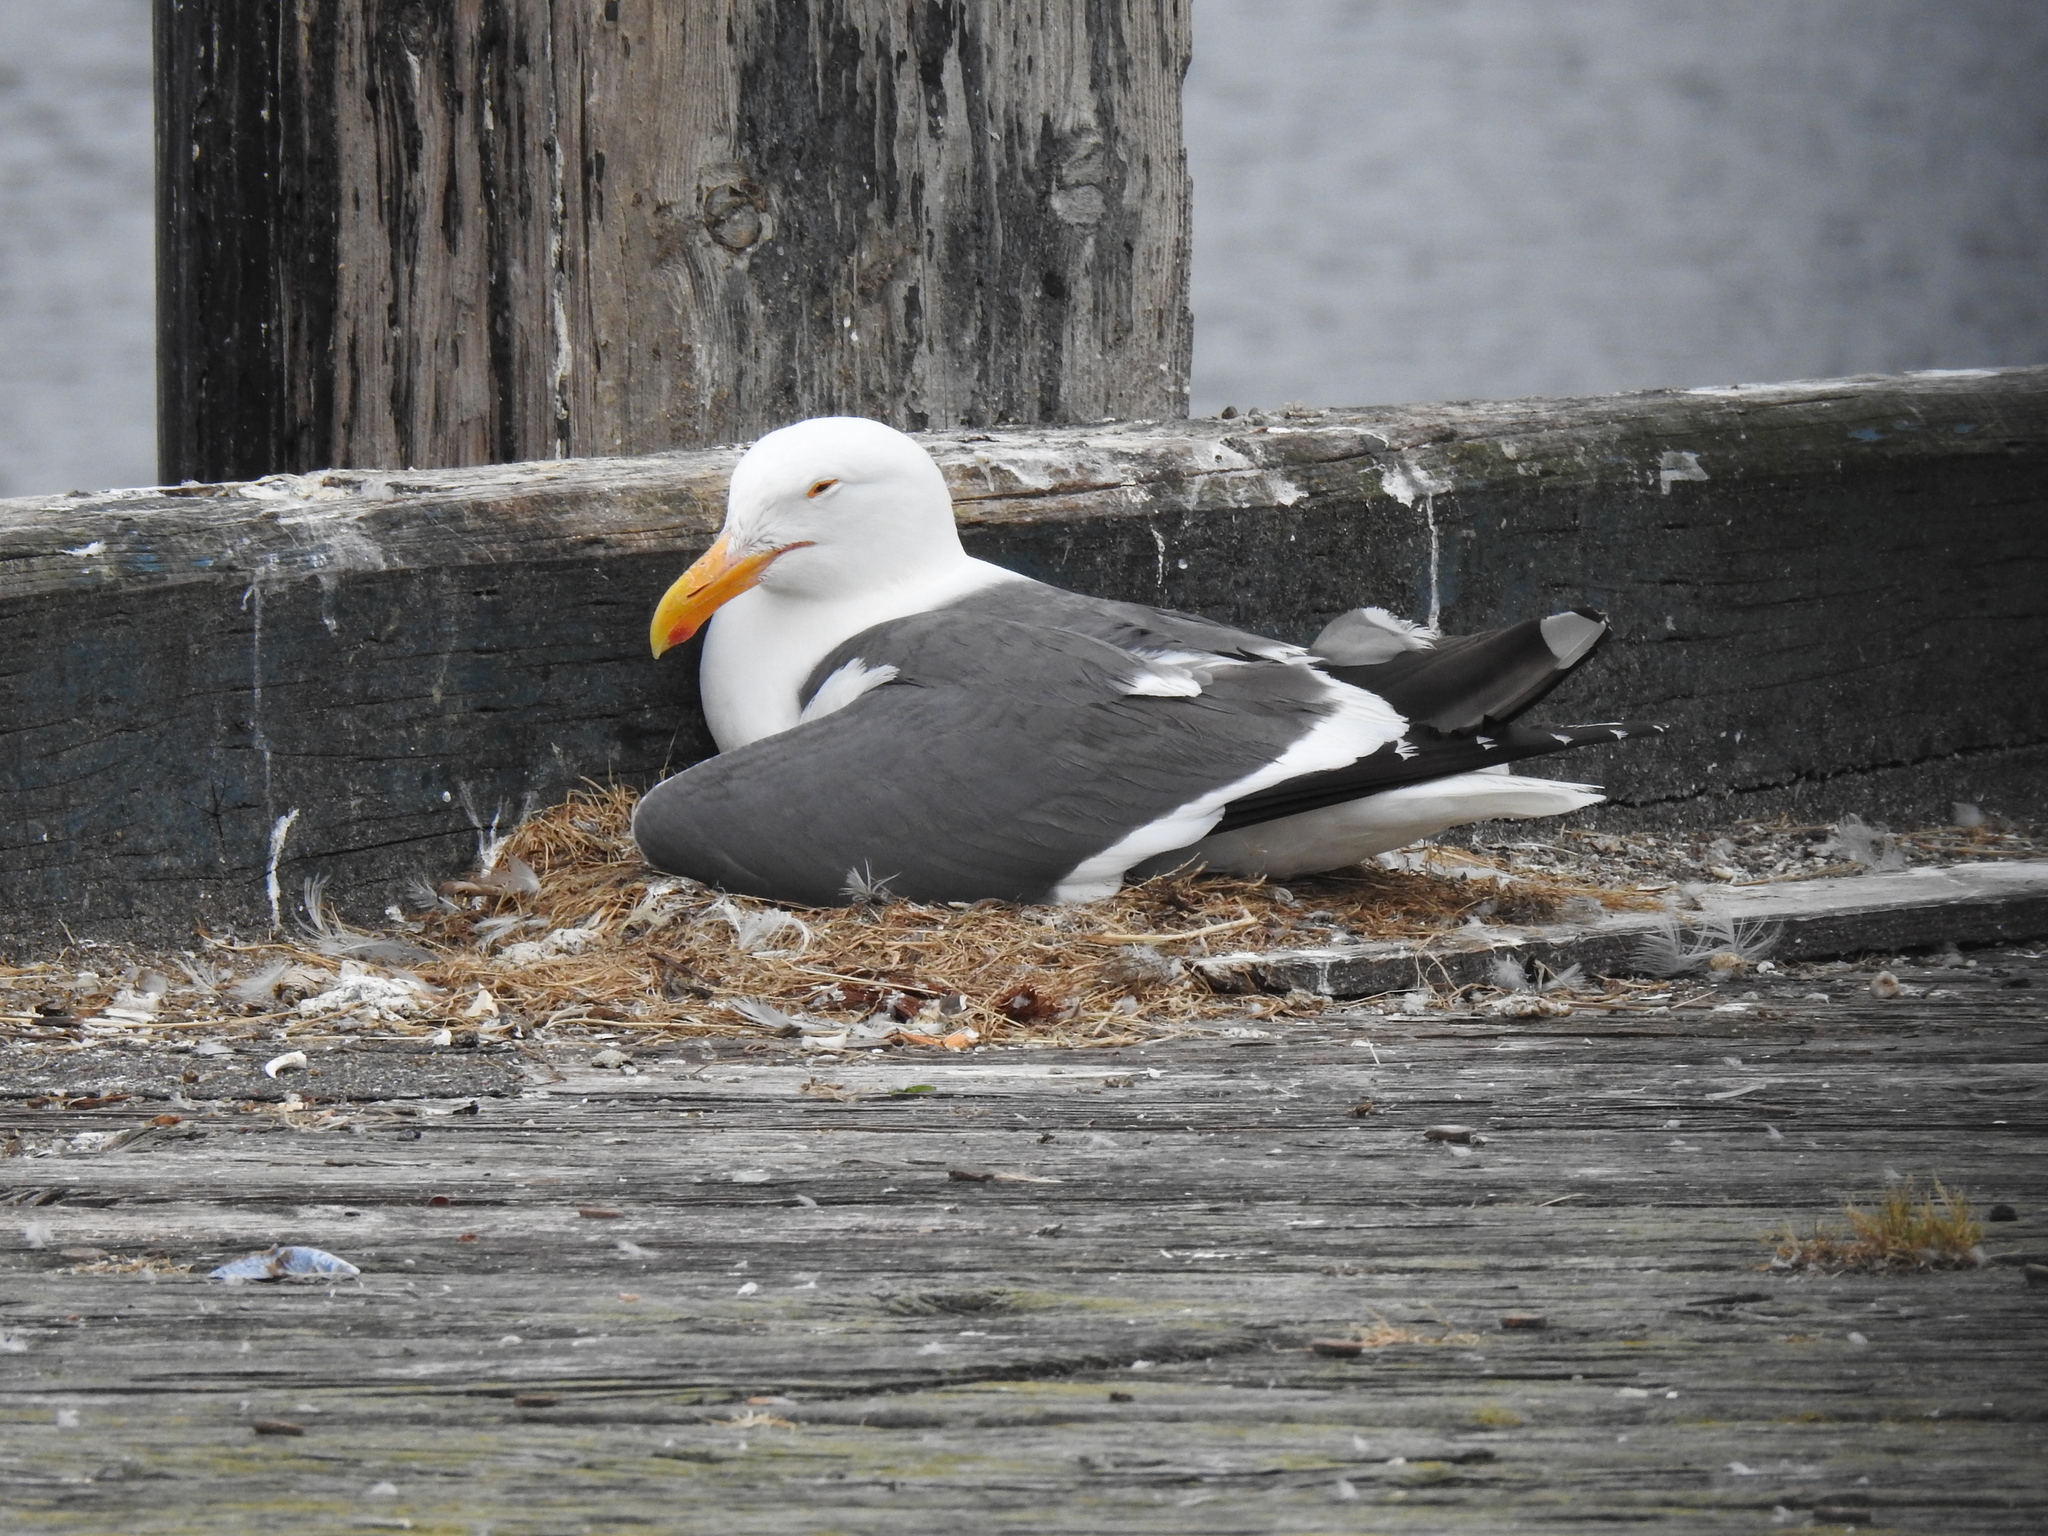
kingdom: Animalia
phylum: Chordata
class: Aves
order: Charadriiformes
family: Laridae
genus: Larus
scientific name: Larus occidentalis
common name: Western gull
